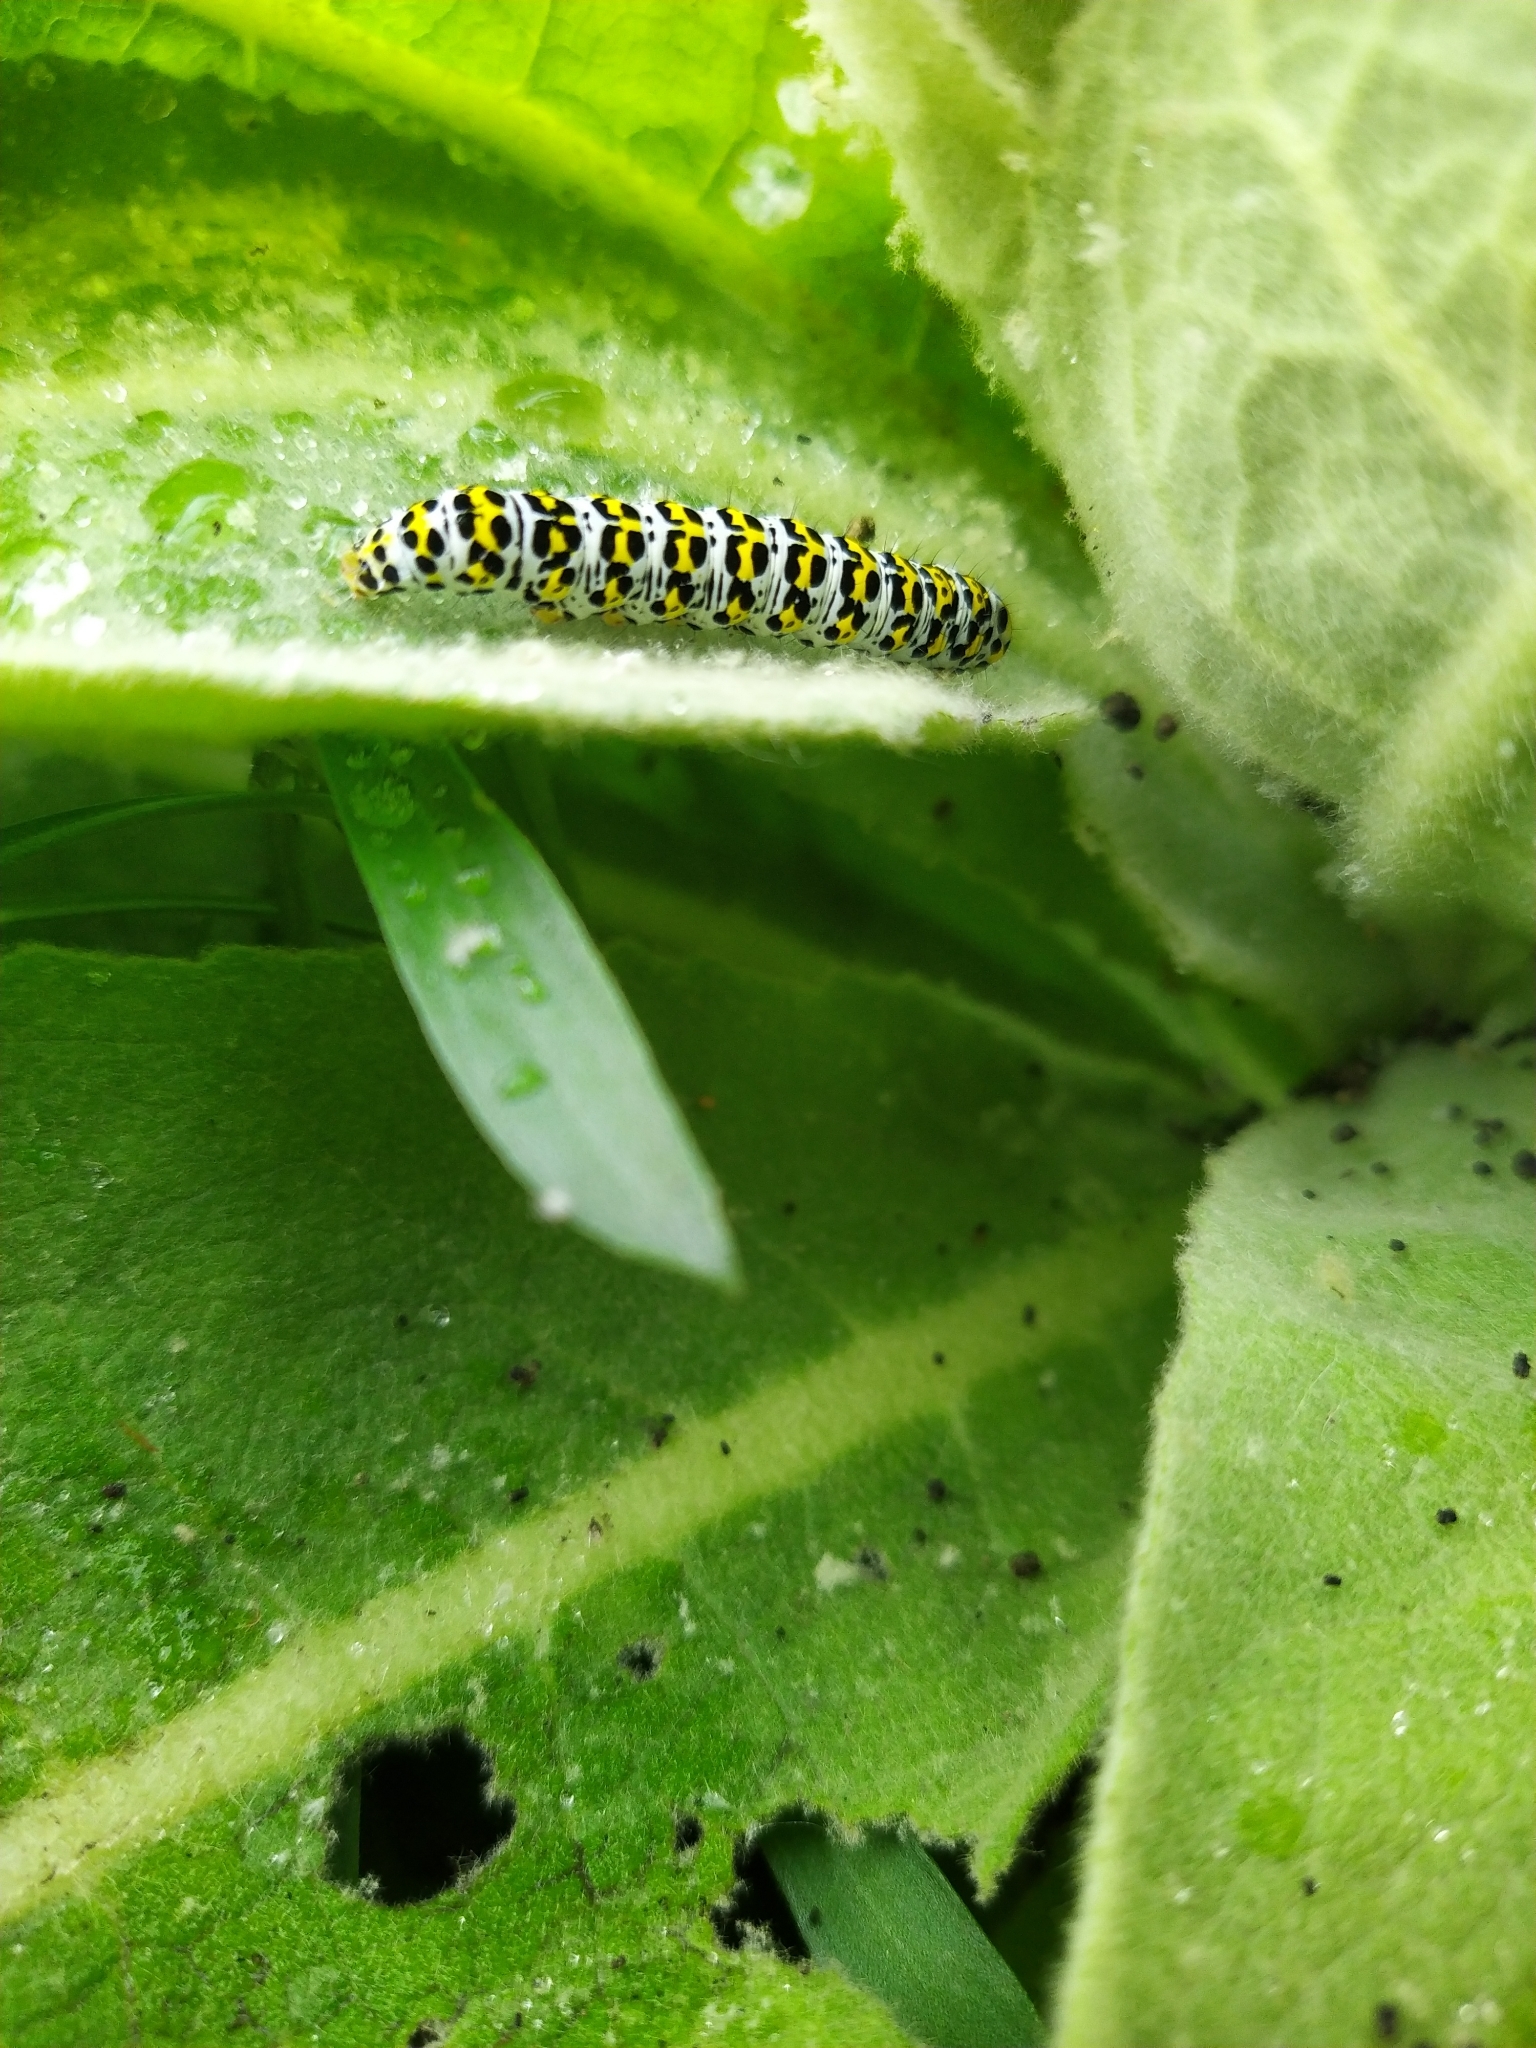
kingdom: Animalia
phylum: Arthropoda
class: Insecta
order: Lepidoptera
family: Noctuidae
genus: Cucullia
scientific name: Cucullia verbasci
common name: Mullein
